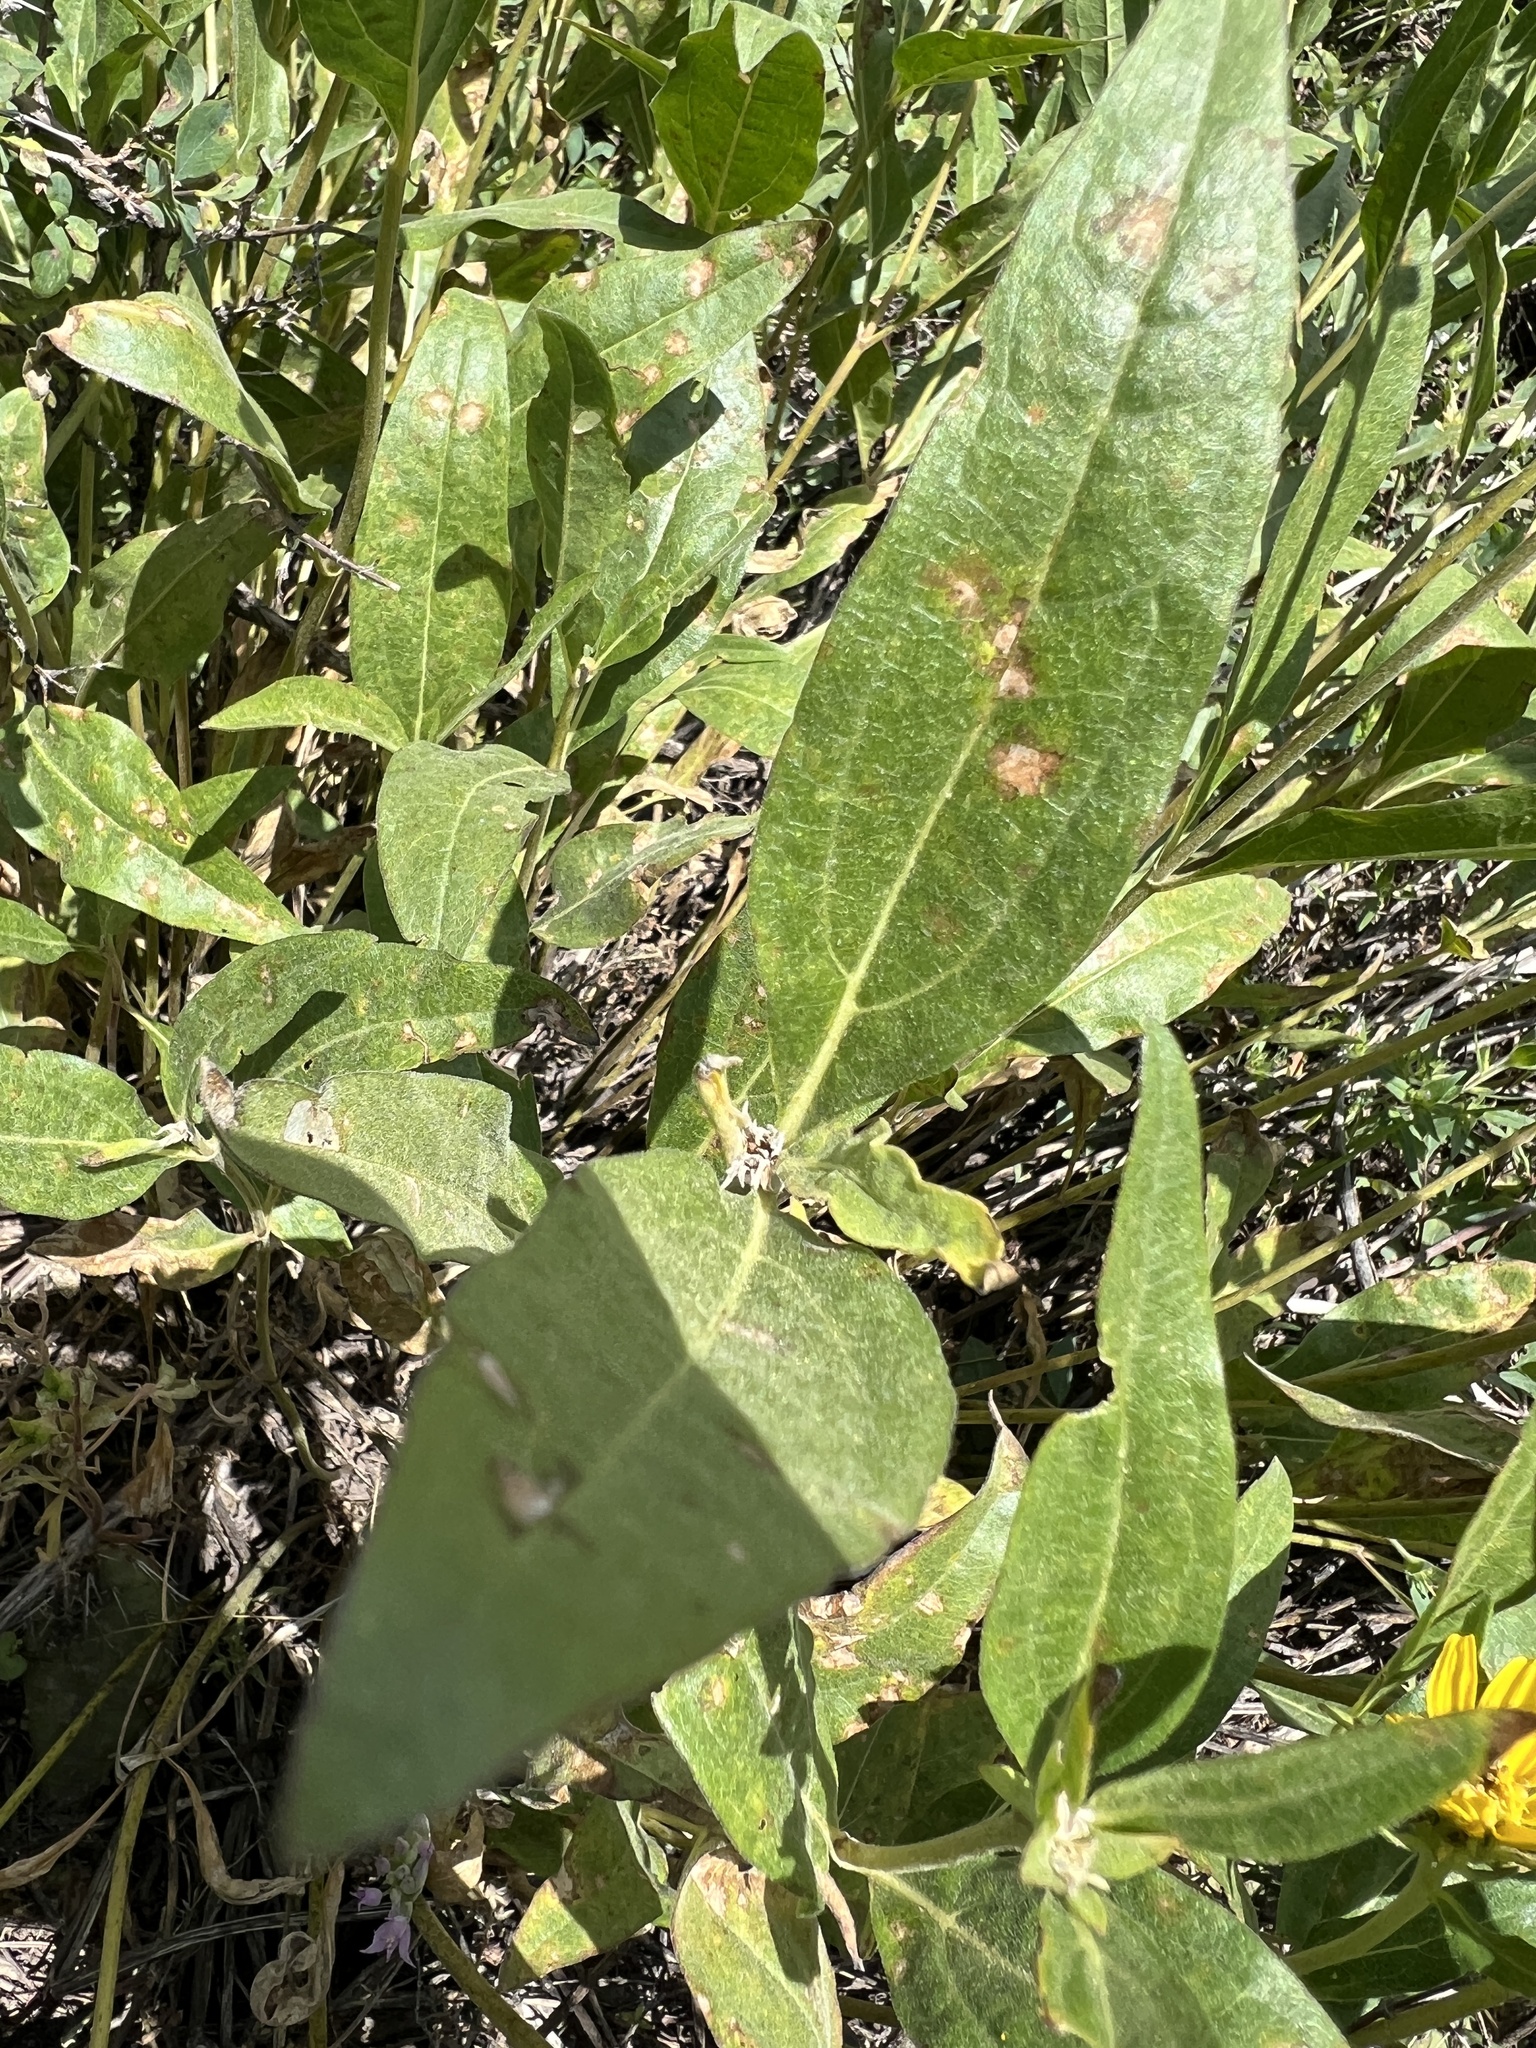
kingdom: Plantae
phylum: Tracheophyta
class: Magnoliopsida
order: Asterales
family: Asteraceae
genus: Helianthella
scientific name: Helianthella uniflora
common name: Rocky mountain dwarf sunflower
